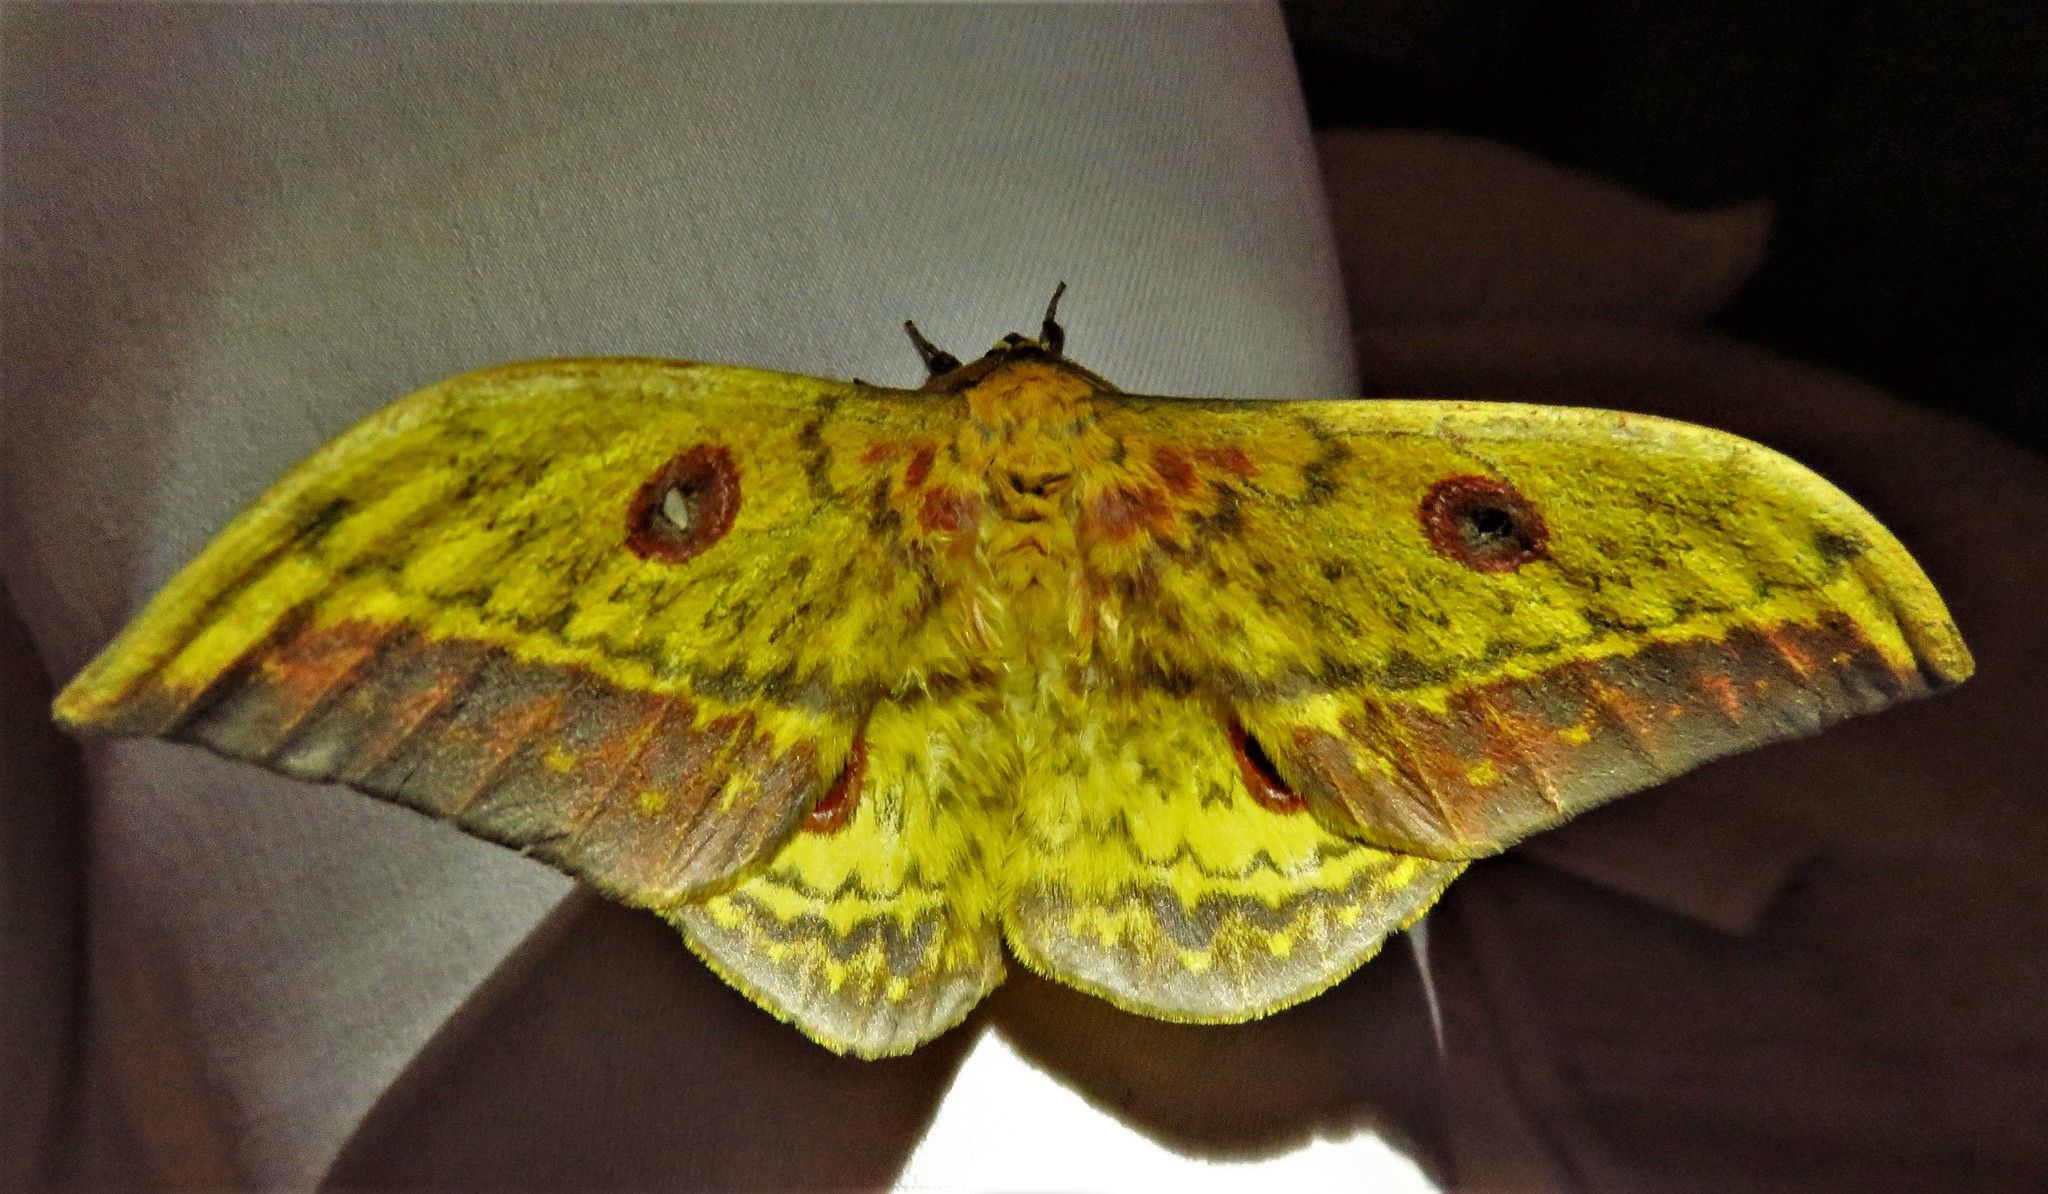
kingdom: Animalia
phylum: Arthropoda
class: Insecta
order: Lepidoptera
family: Saturniidae
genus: Aurivillius
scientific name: Aurivillius fusca
